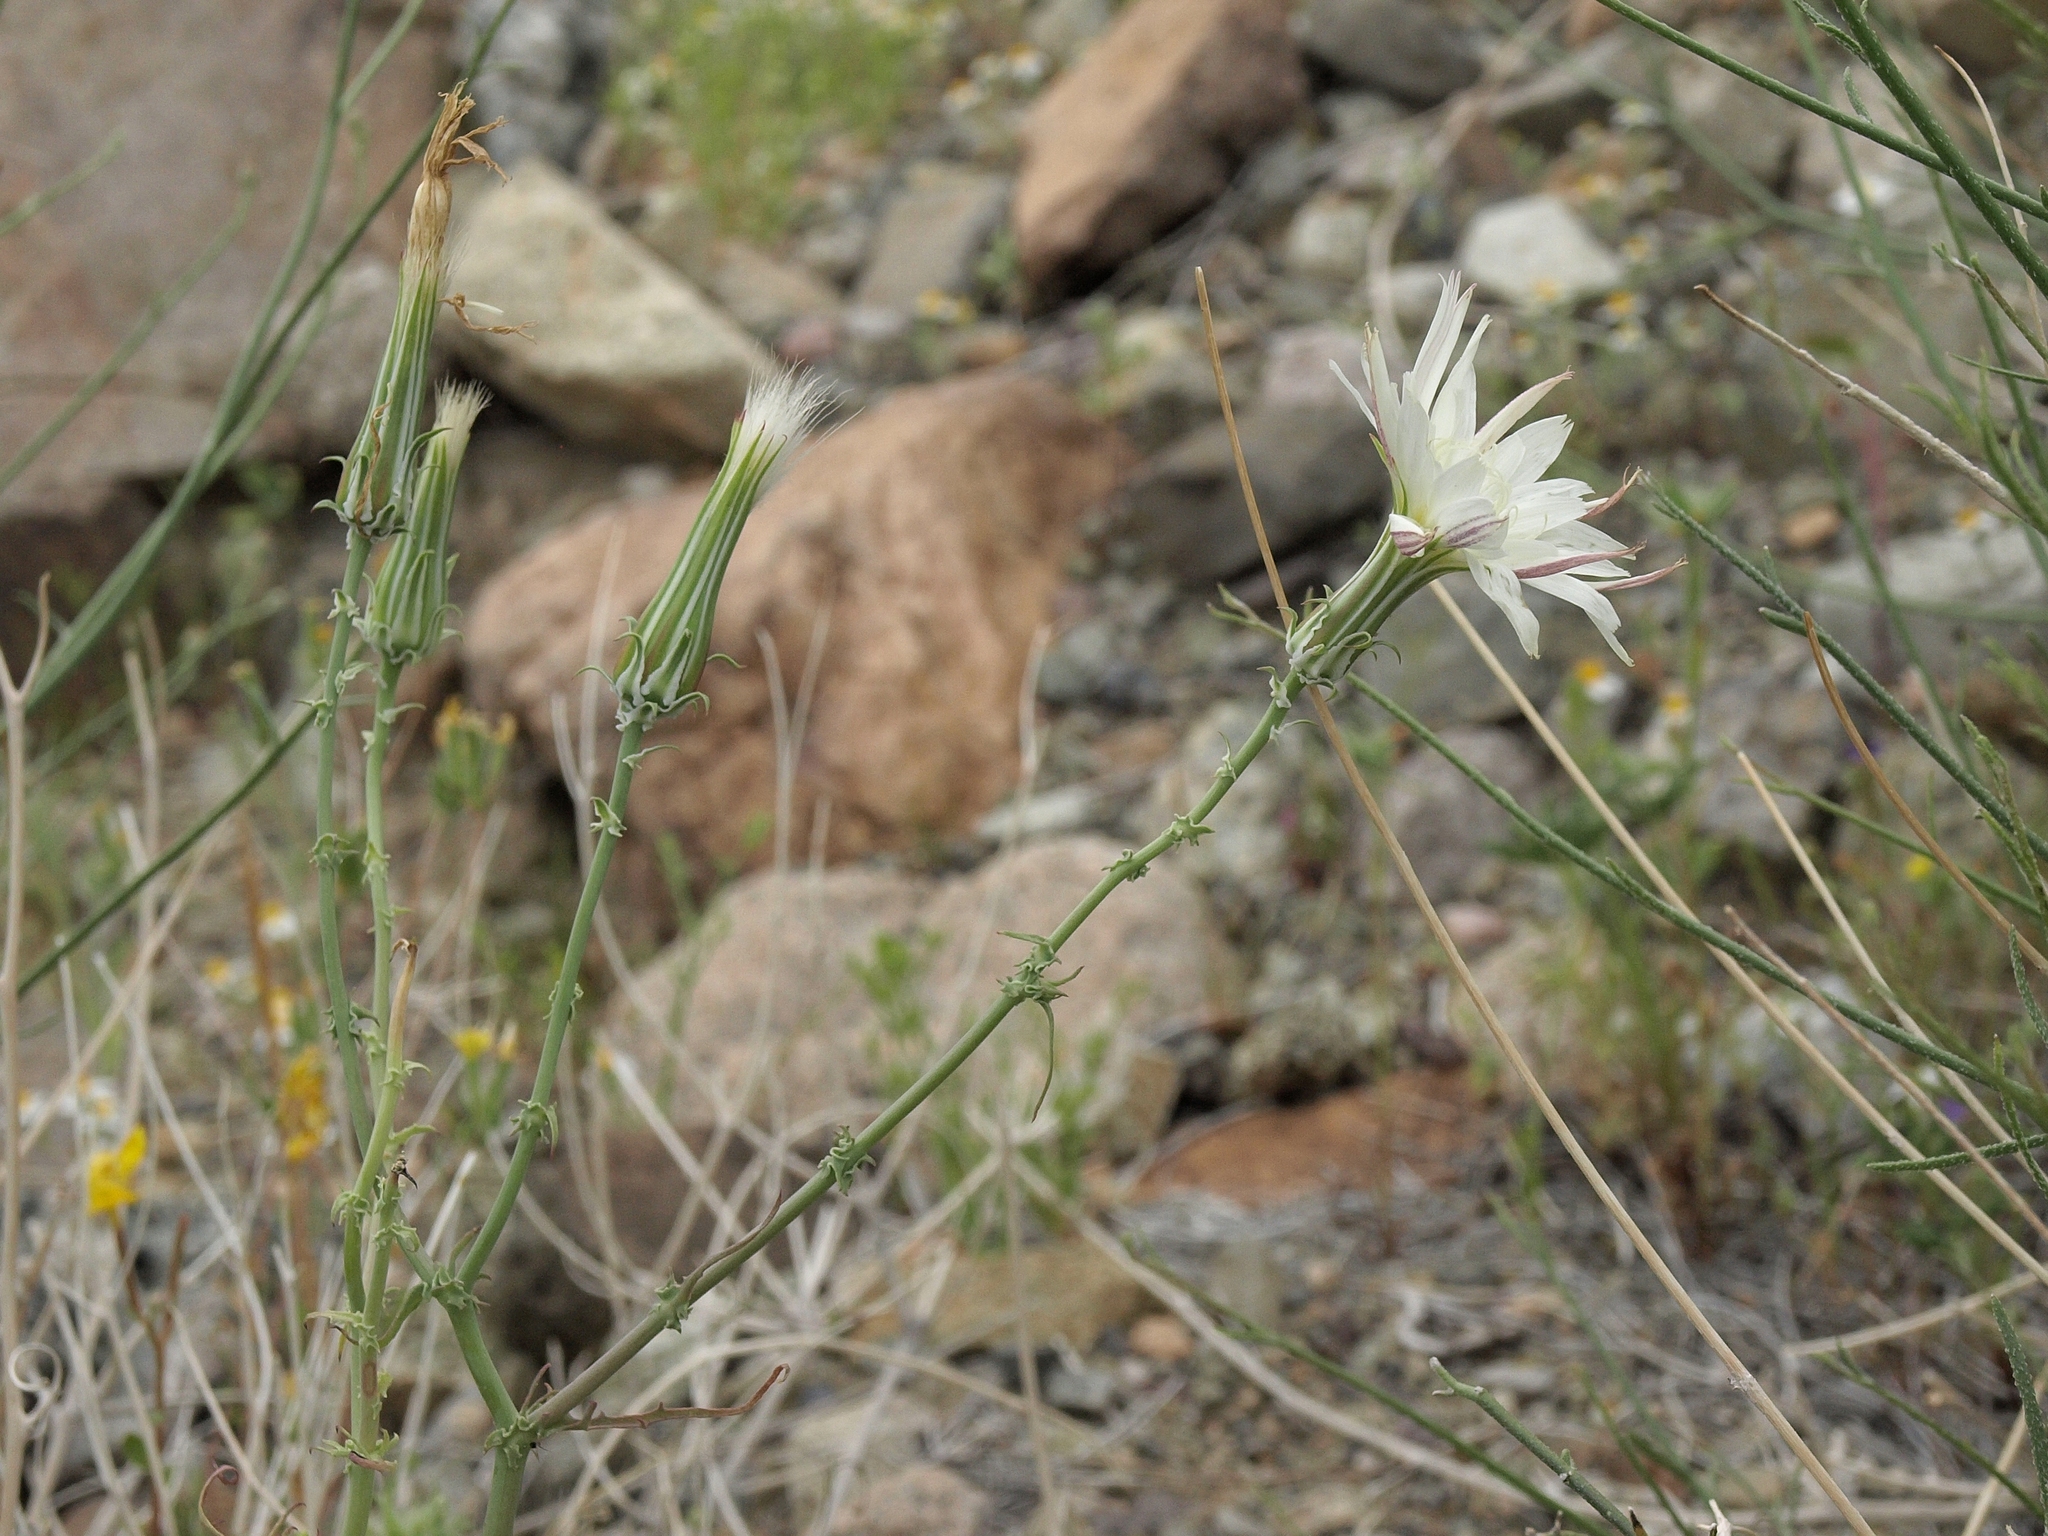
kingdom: Plantae
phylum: Tracheophyta
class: Magnoliopsida
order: Asterales
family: Asteraceae
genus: Rafinesquia
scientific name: Rafinesquia neomexicana
